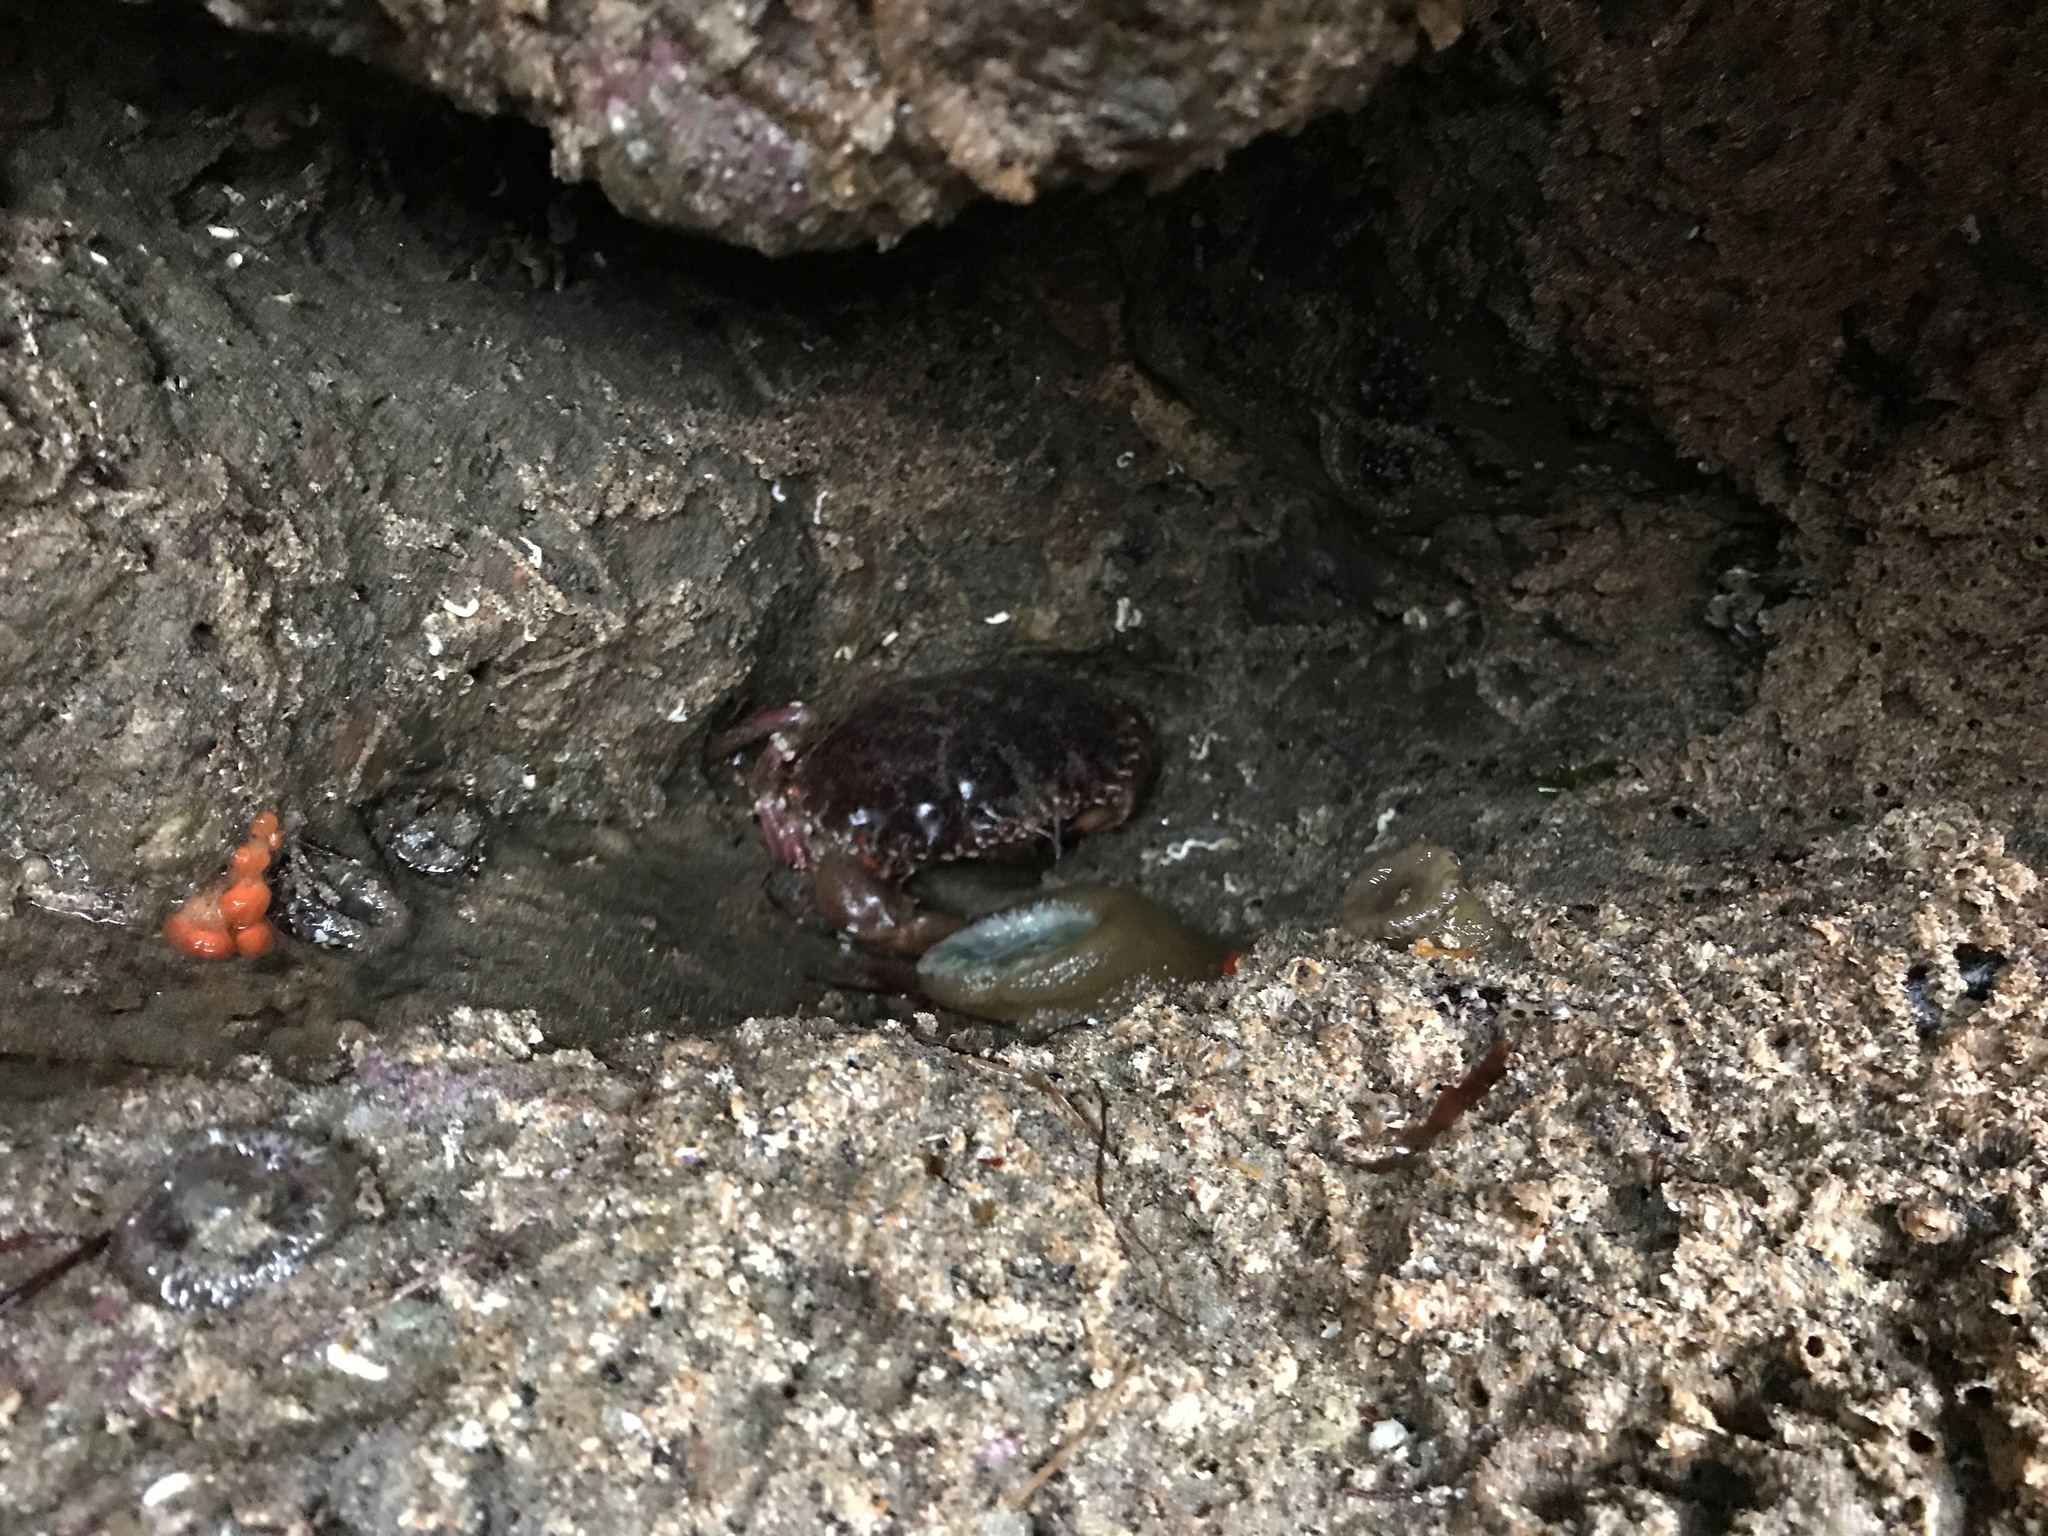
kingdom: Animalia
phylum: Arthropoda
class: Malacostraca
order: Decapoda
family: Cancridae
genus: Romaleon
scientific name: Romaleon antennarium
